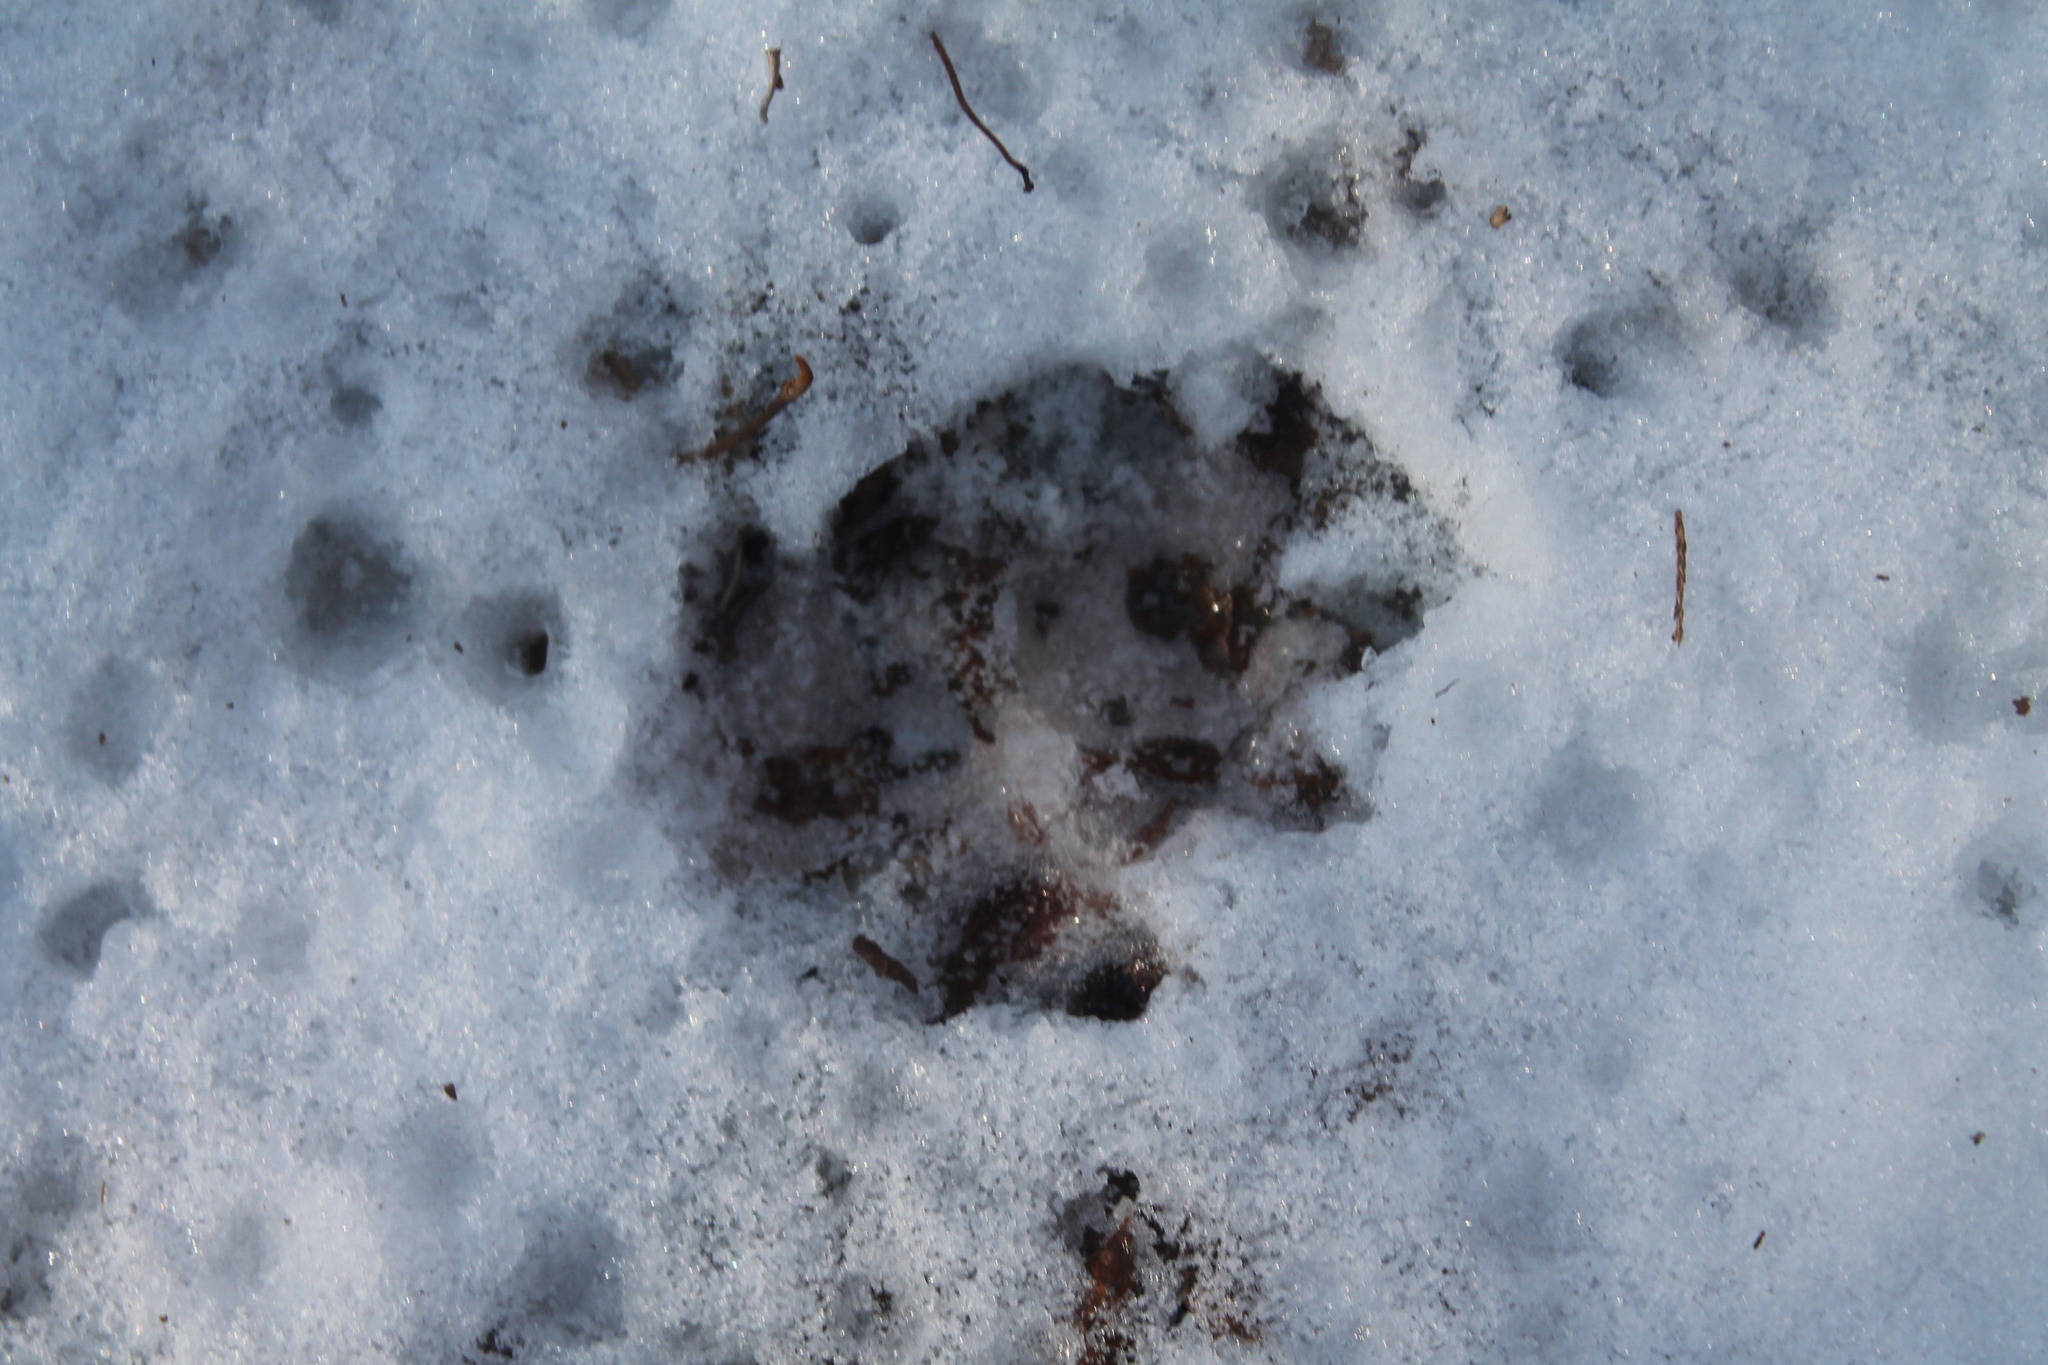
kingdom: Animalia
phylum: Chordata
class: Mammalia
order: Didelphimorphia
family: Didelphidae
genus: Didelphis
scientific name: Didelphis virginiana
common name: Virginia opossum
